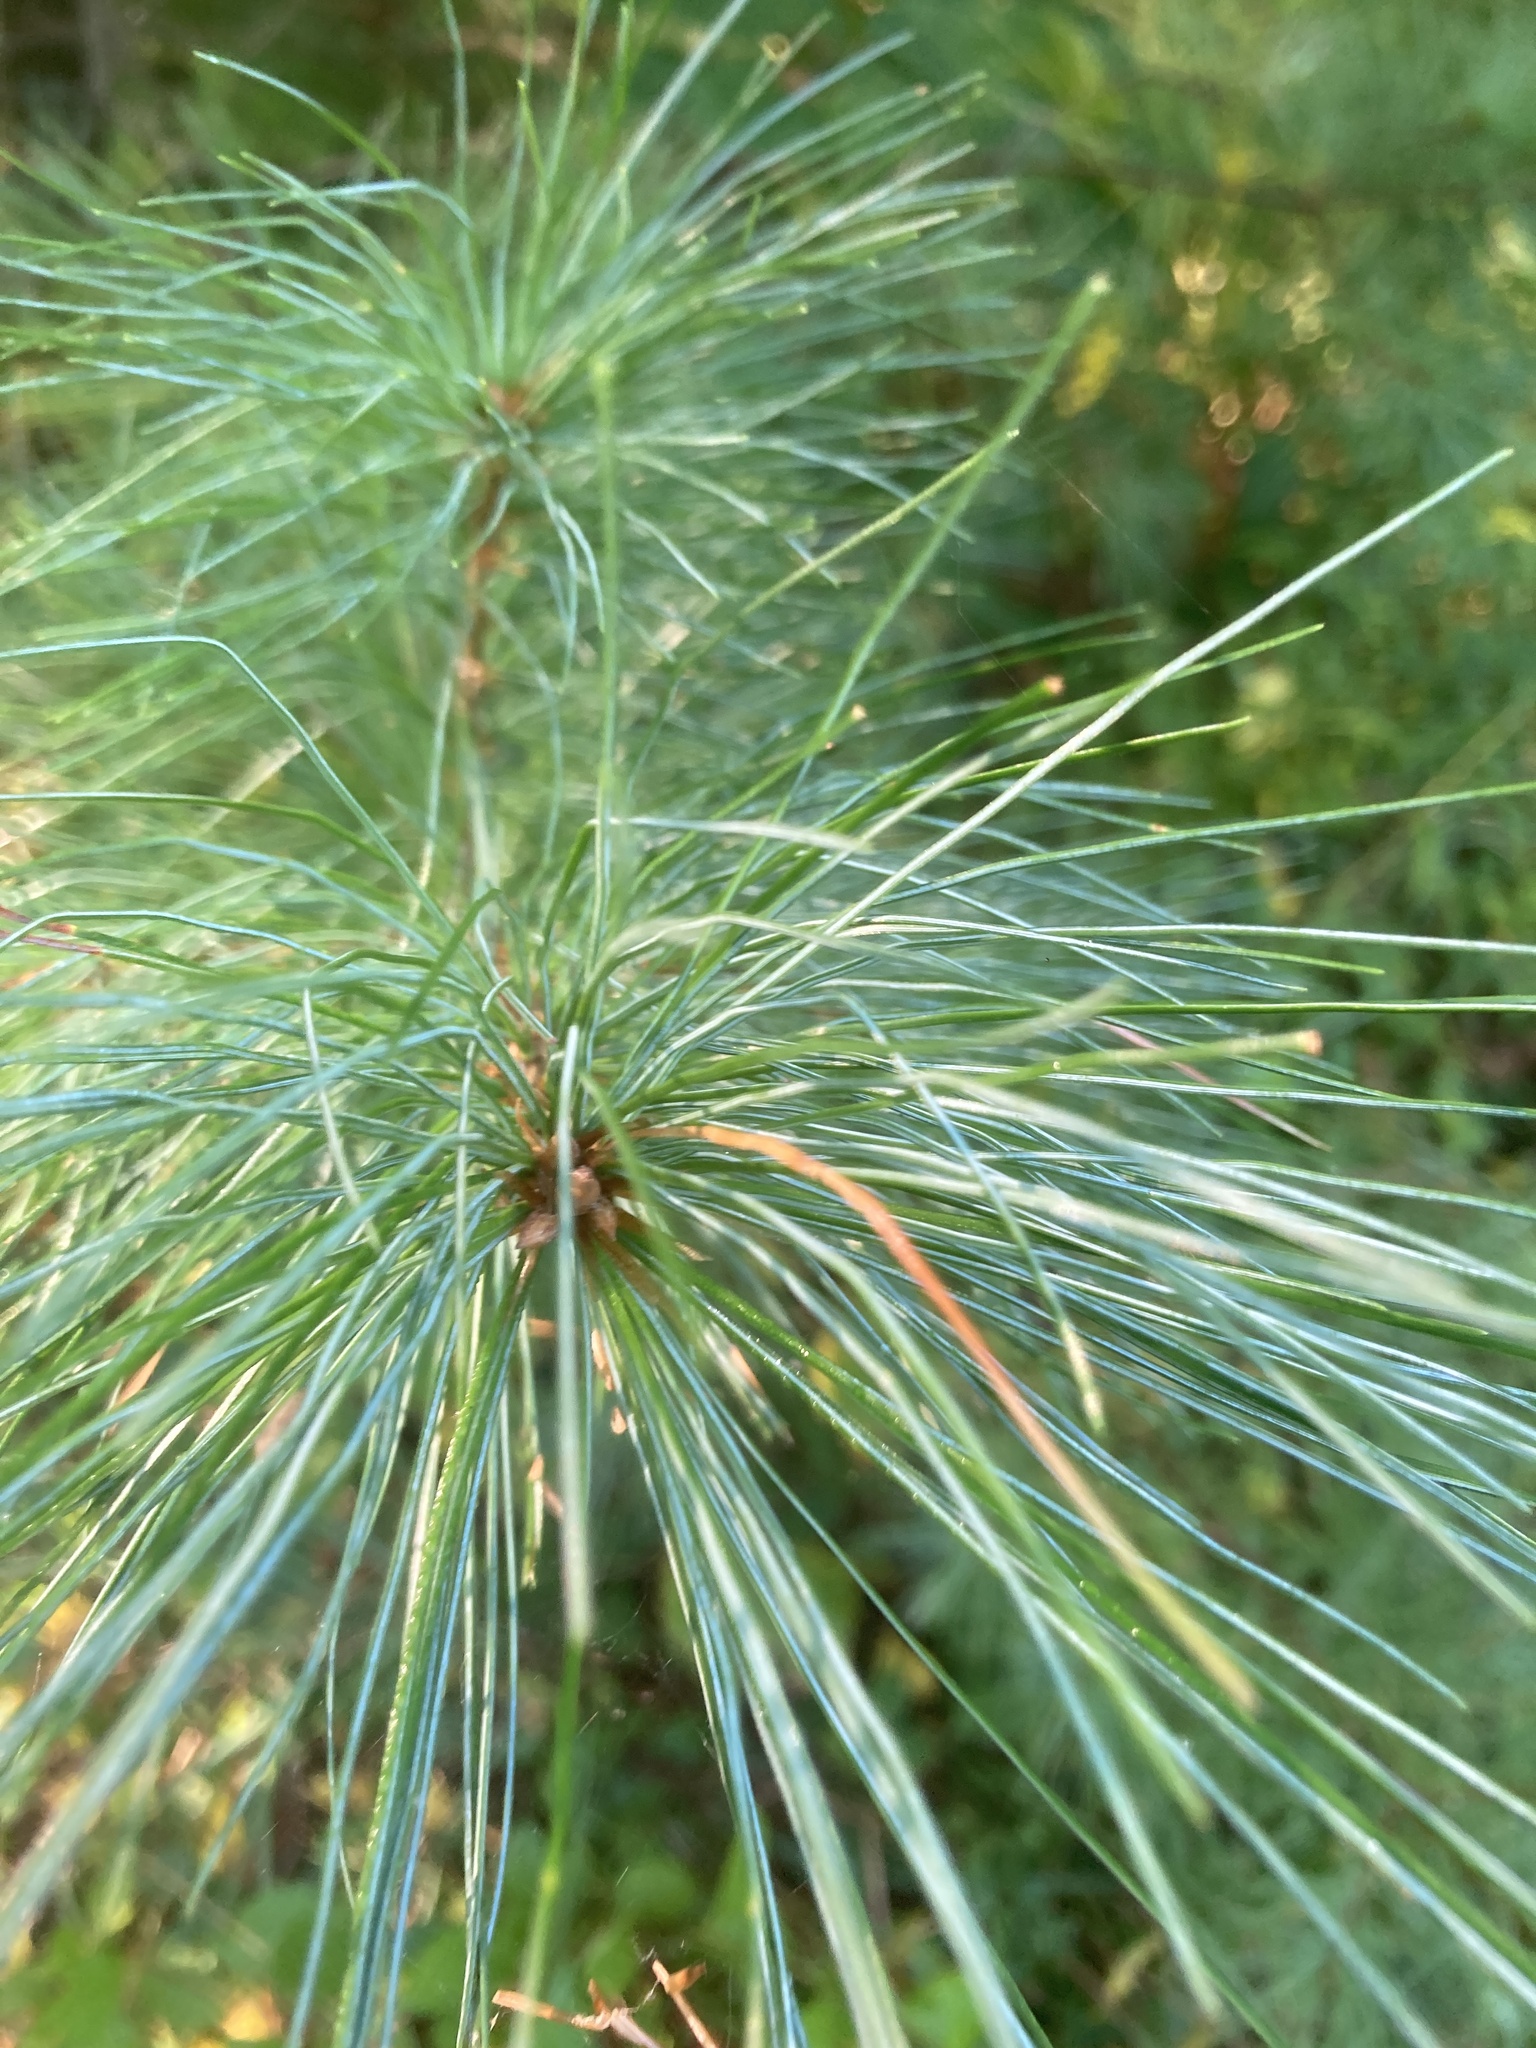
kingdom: Plantae
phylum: Tracheophyta
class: Pinopsida
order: Pinales
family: Pinaceae
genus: Pinus
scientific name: Pinus strobus
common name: Weymouth pine
